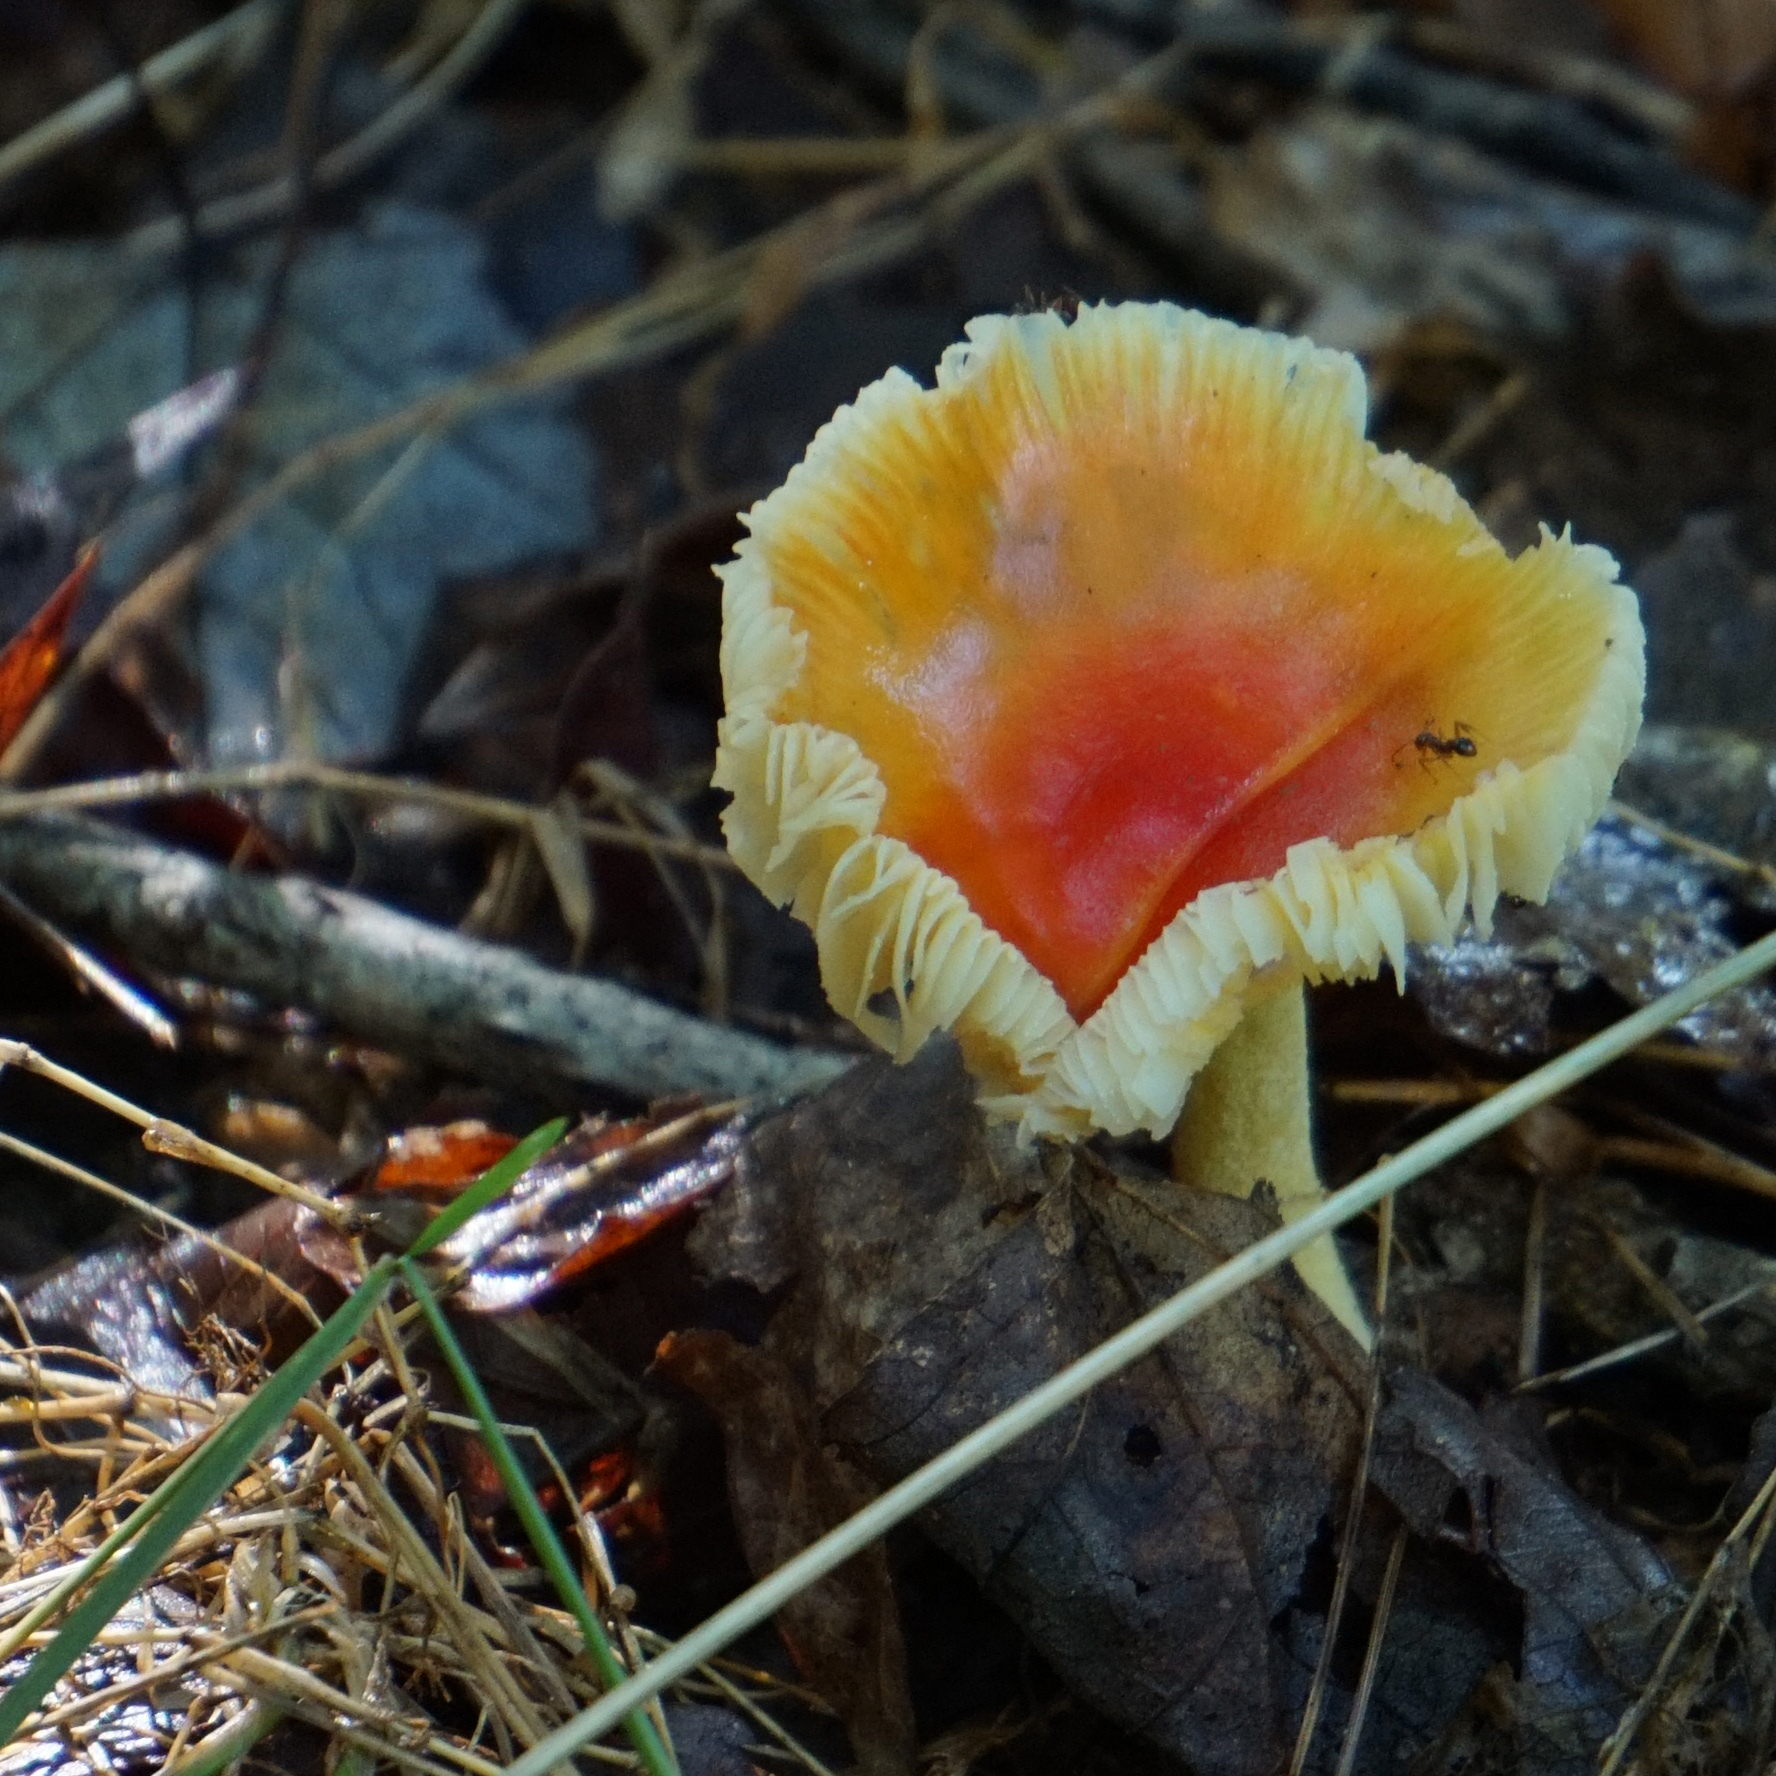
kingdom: Fungi
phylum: Basidiomycota
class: Agaricomycetes
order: Agaricales
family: Amanitaceae
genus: Amanita
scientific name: Amanita parcivolvata
